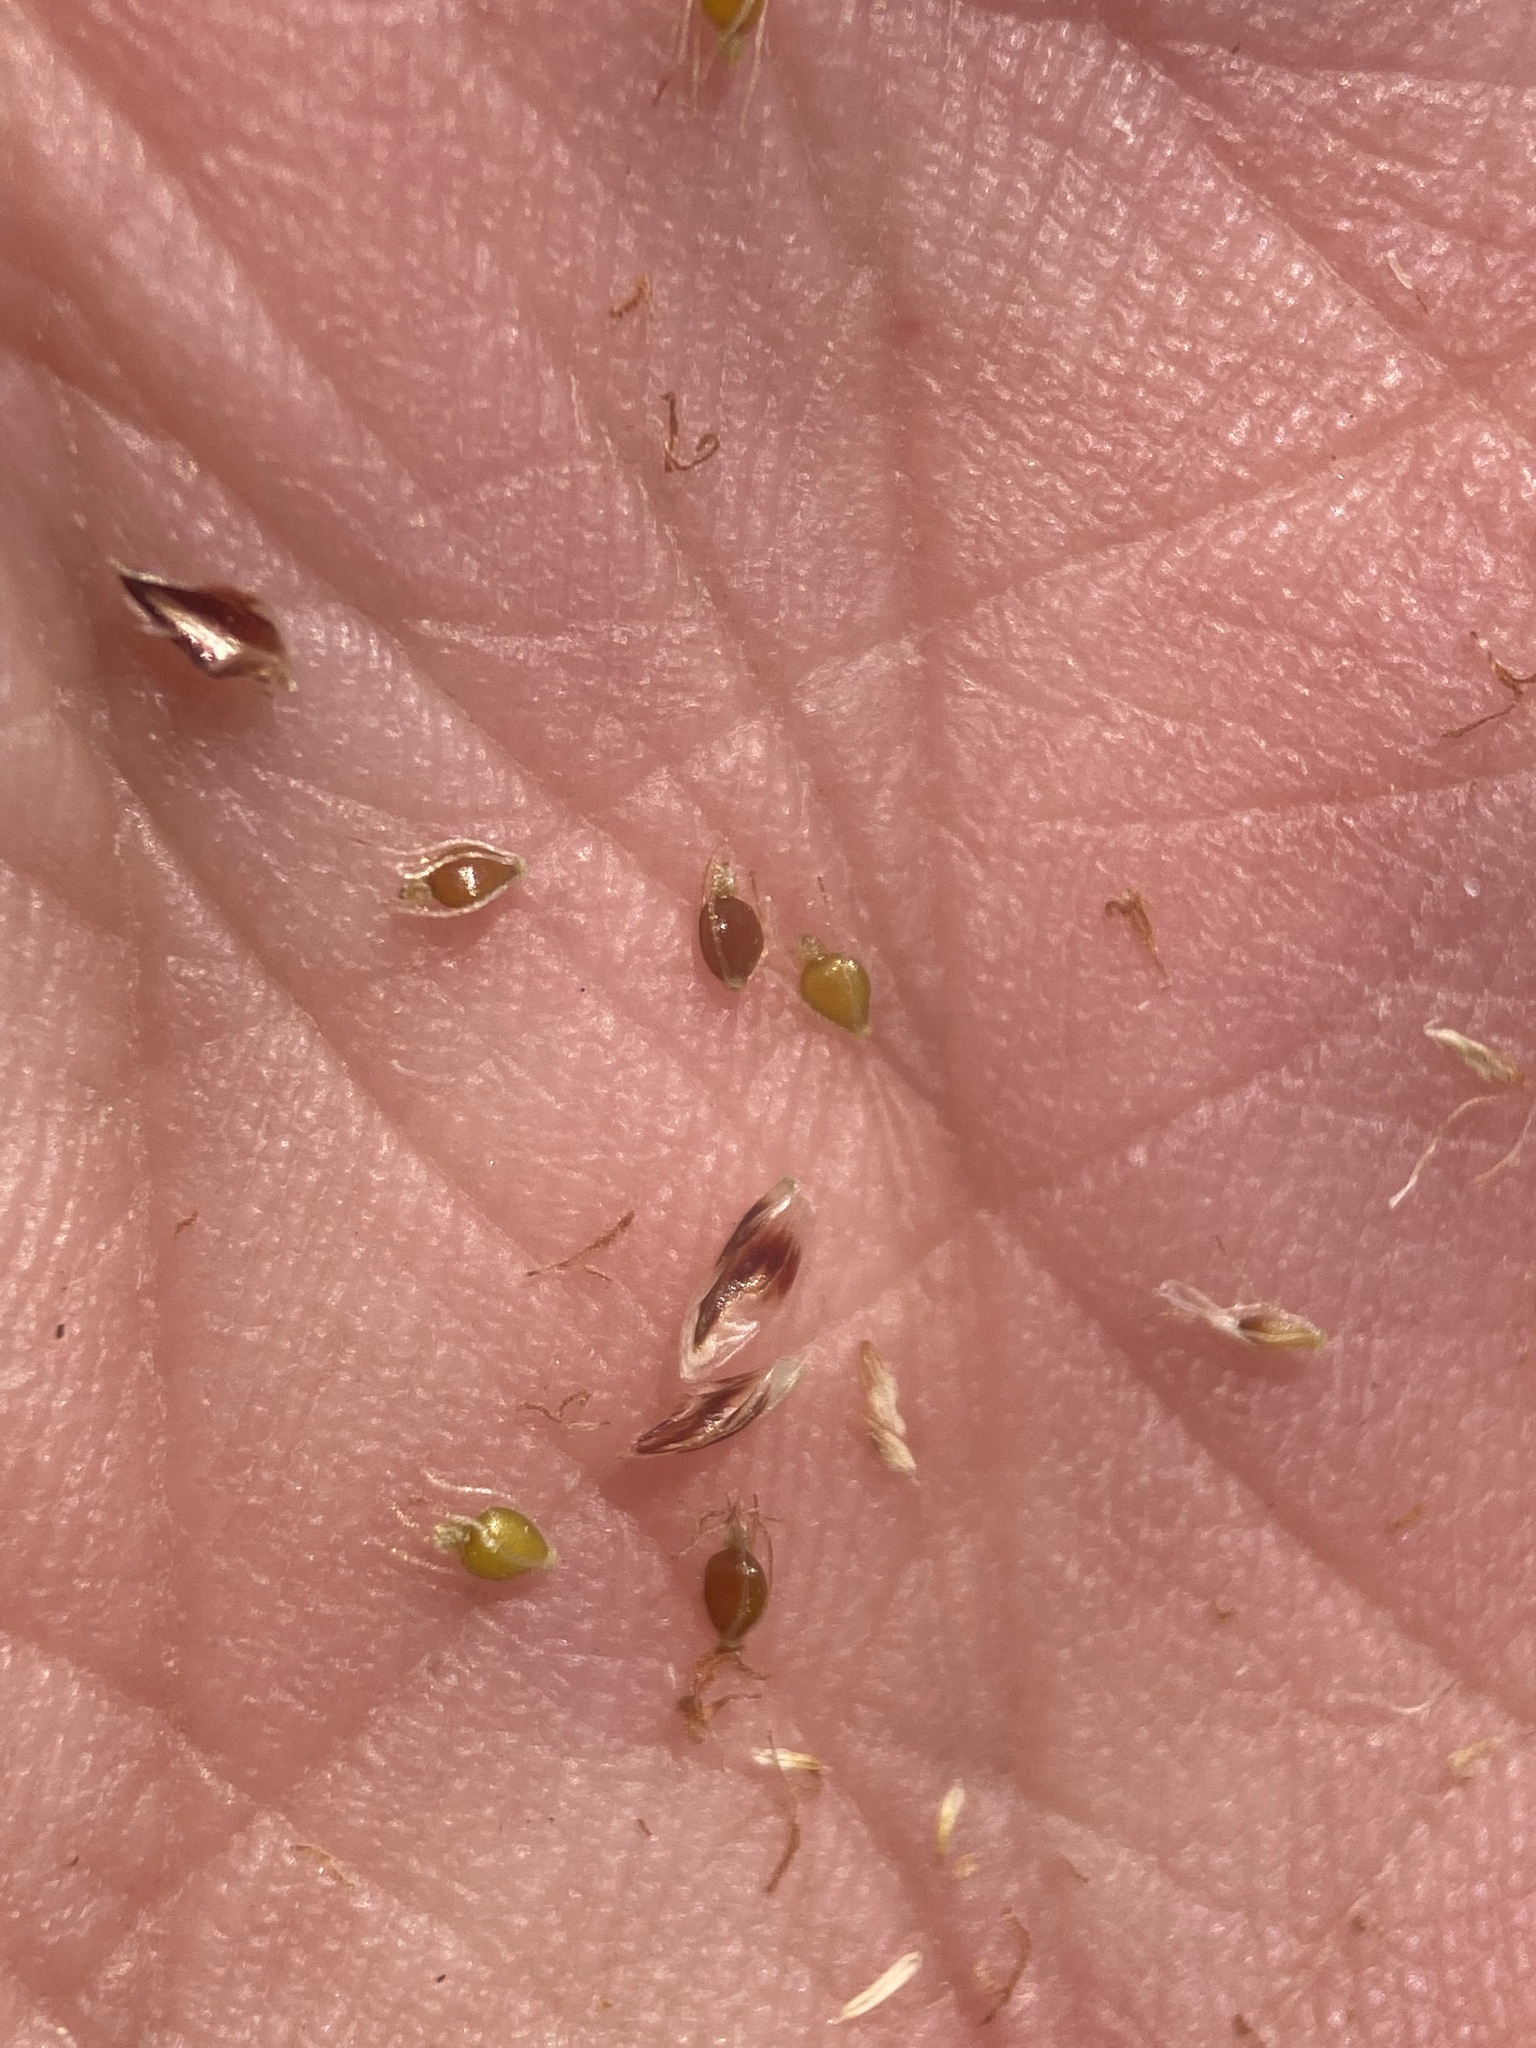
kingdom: Plantae
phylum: Tracheophyta
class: Liliopsida
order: Poales
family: Cyperaceae
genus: Eleocharis
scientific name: Eleocharis palustris
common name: Common spike-rush
